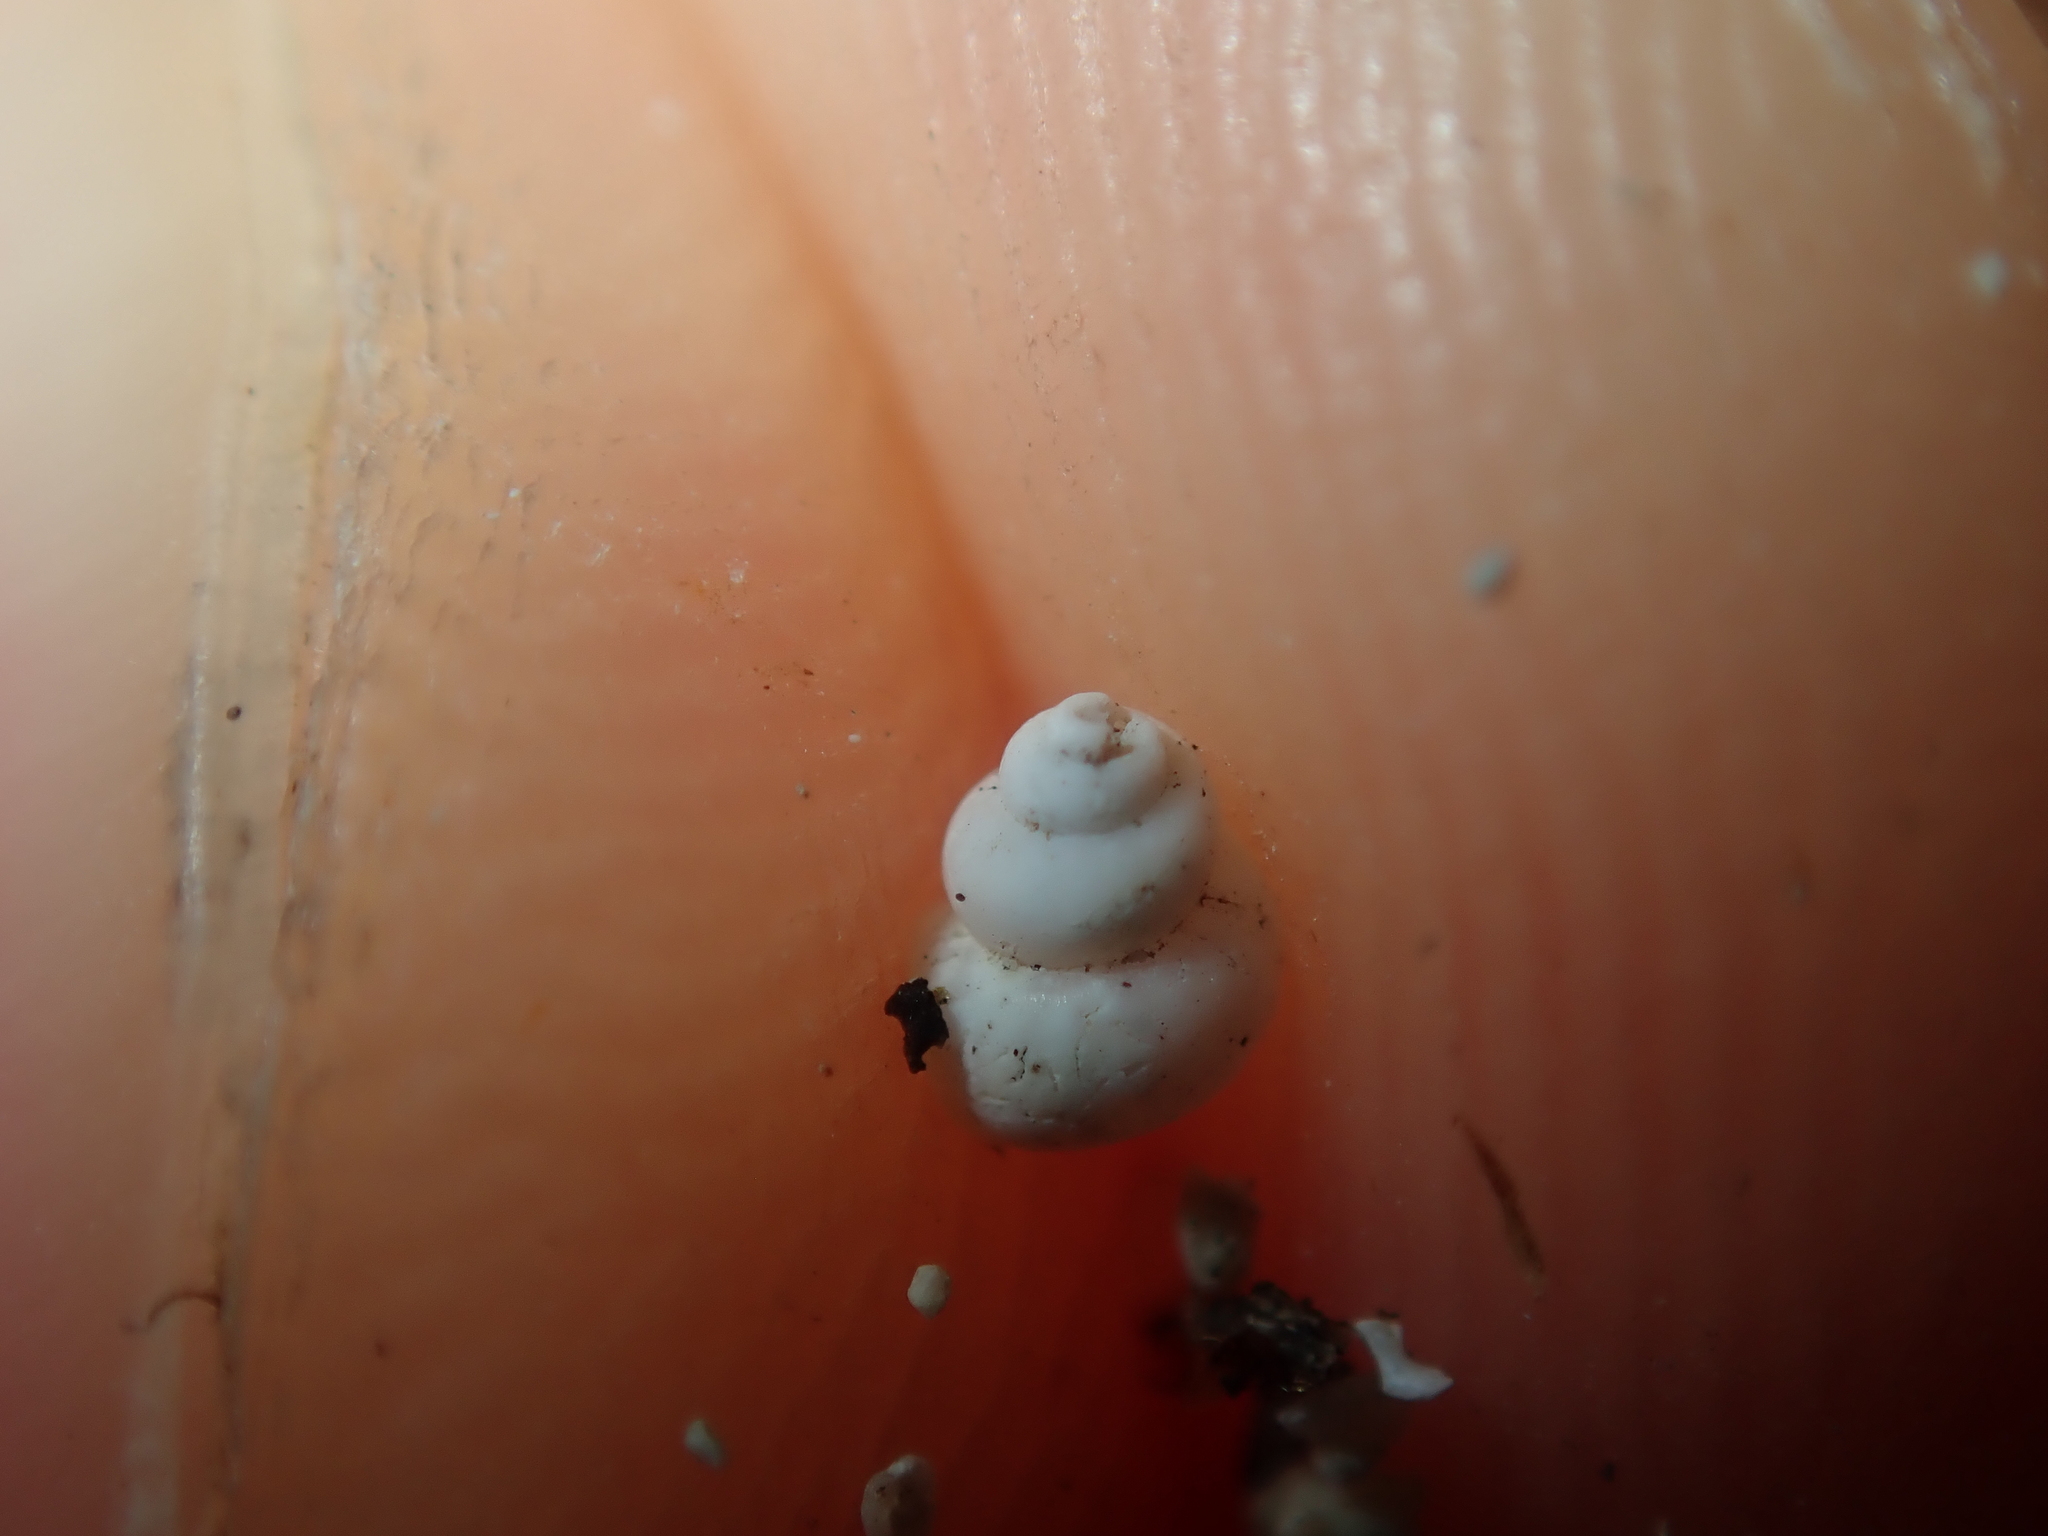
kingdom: Animalia
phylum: Mollusca
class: Gastropoda
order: Littorinimorpha
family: Tomichiidae
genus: Coxiella
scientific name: Coxiella gilesi
